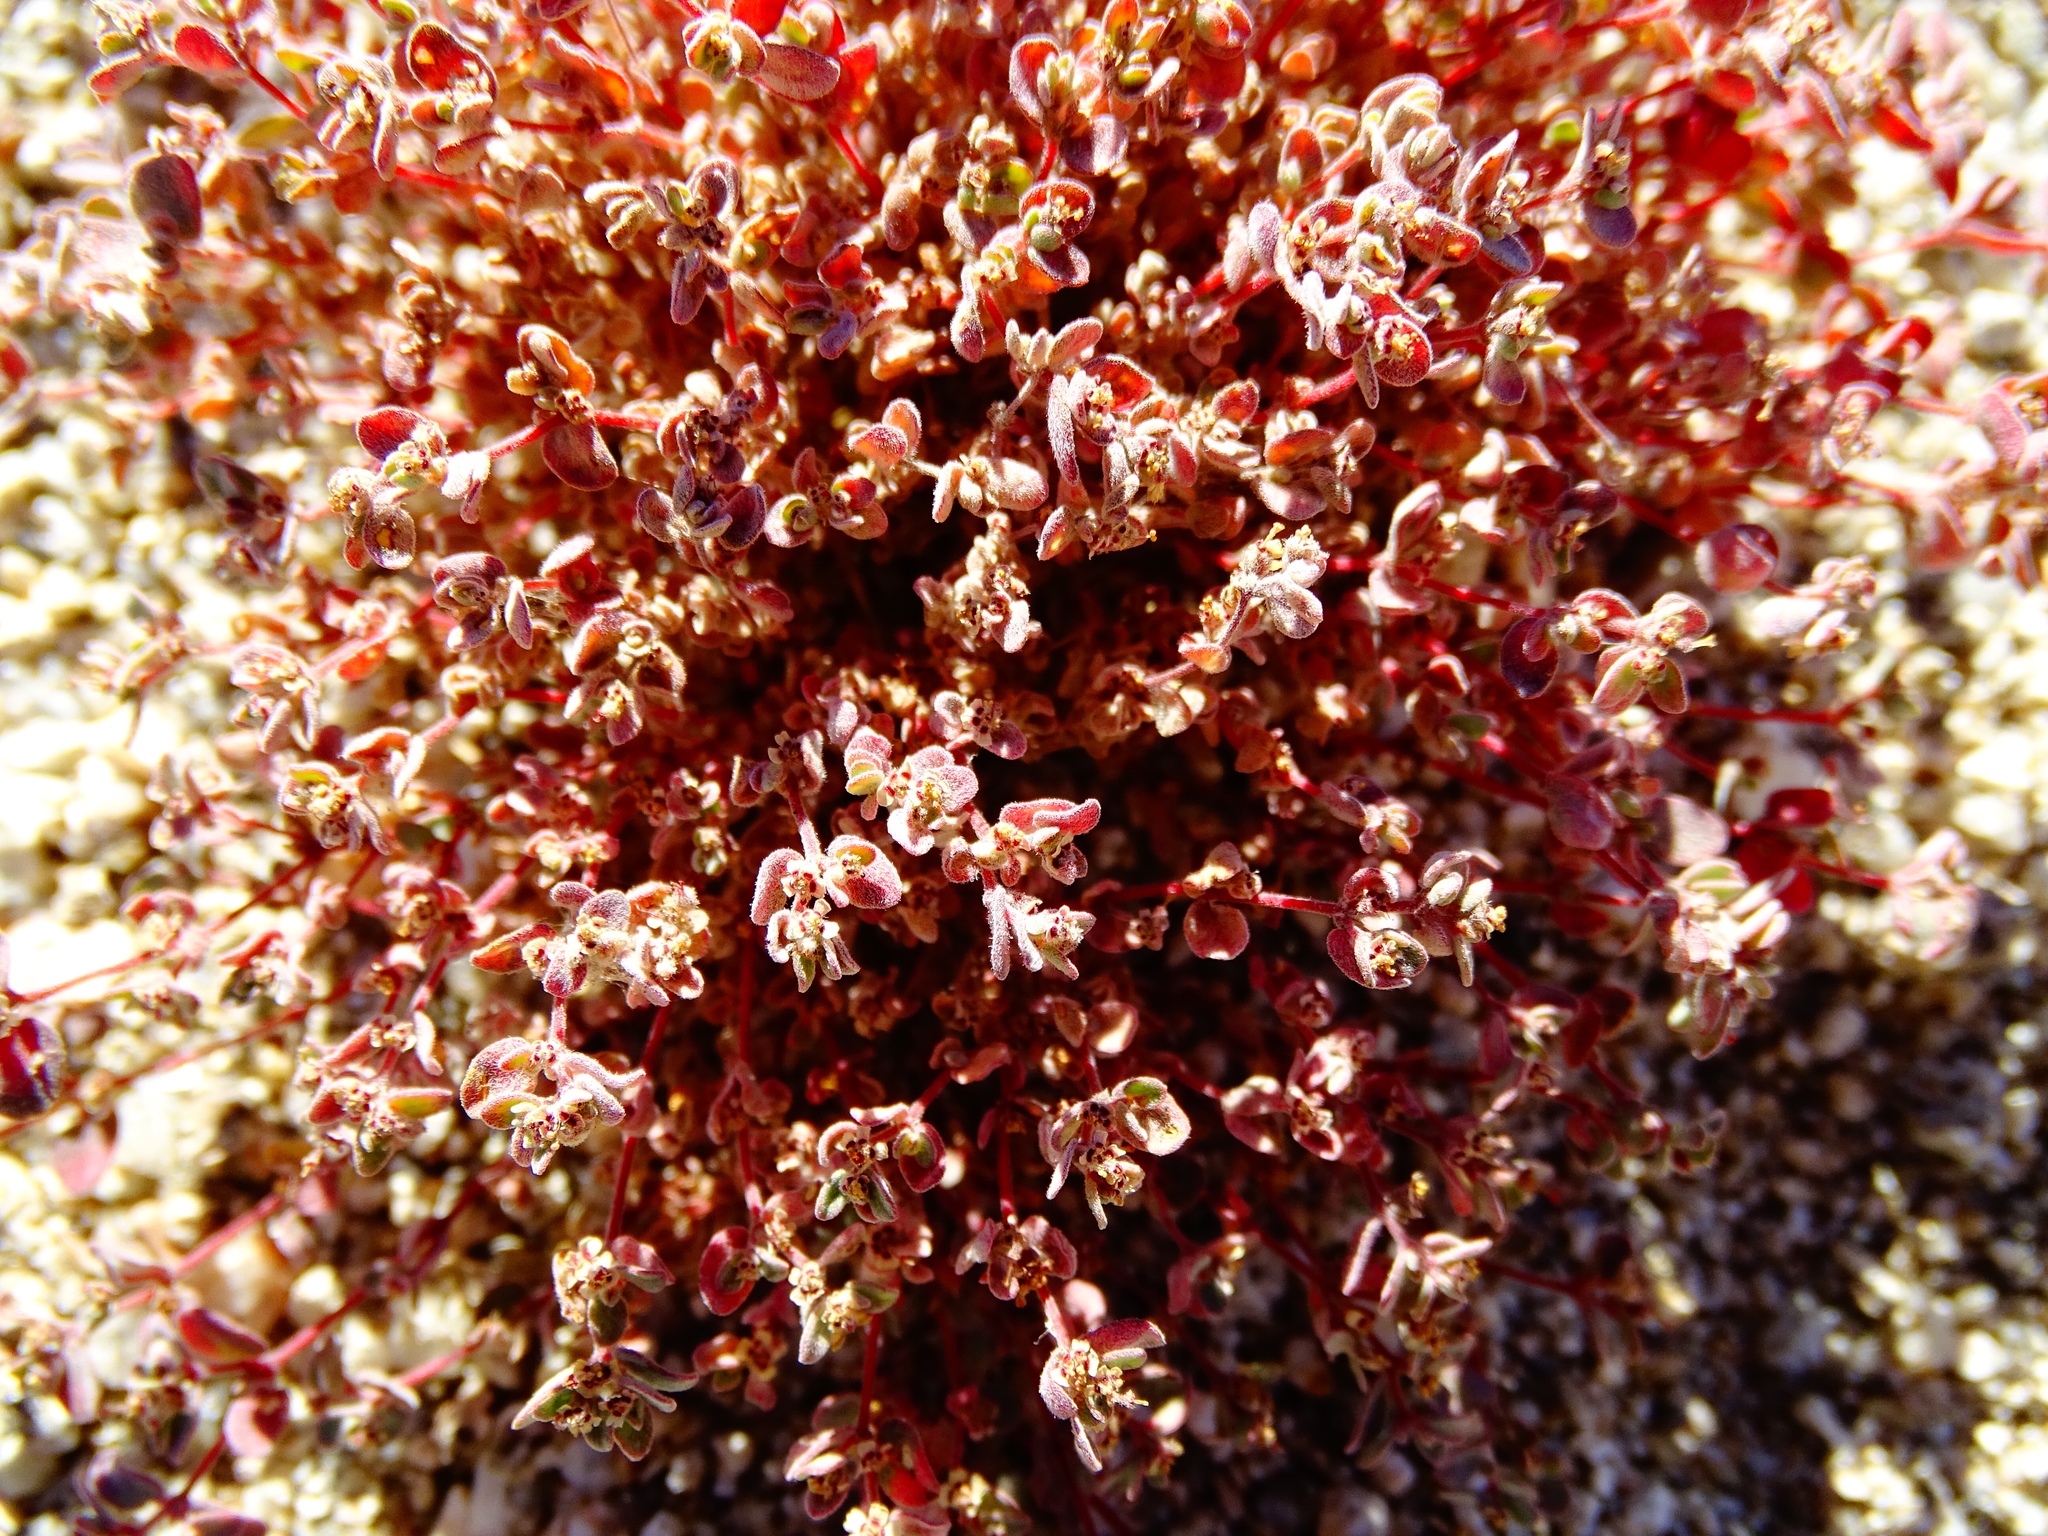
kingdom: Plantae
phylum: Tracheophyta
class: Magnoliopsida
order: Malpighiales
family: Euphorbiaceae
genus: Euphorbia
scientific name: Euphorbia melanadenia
